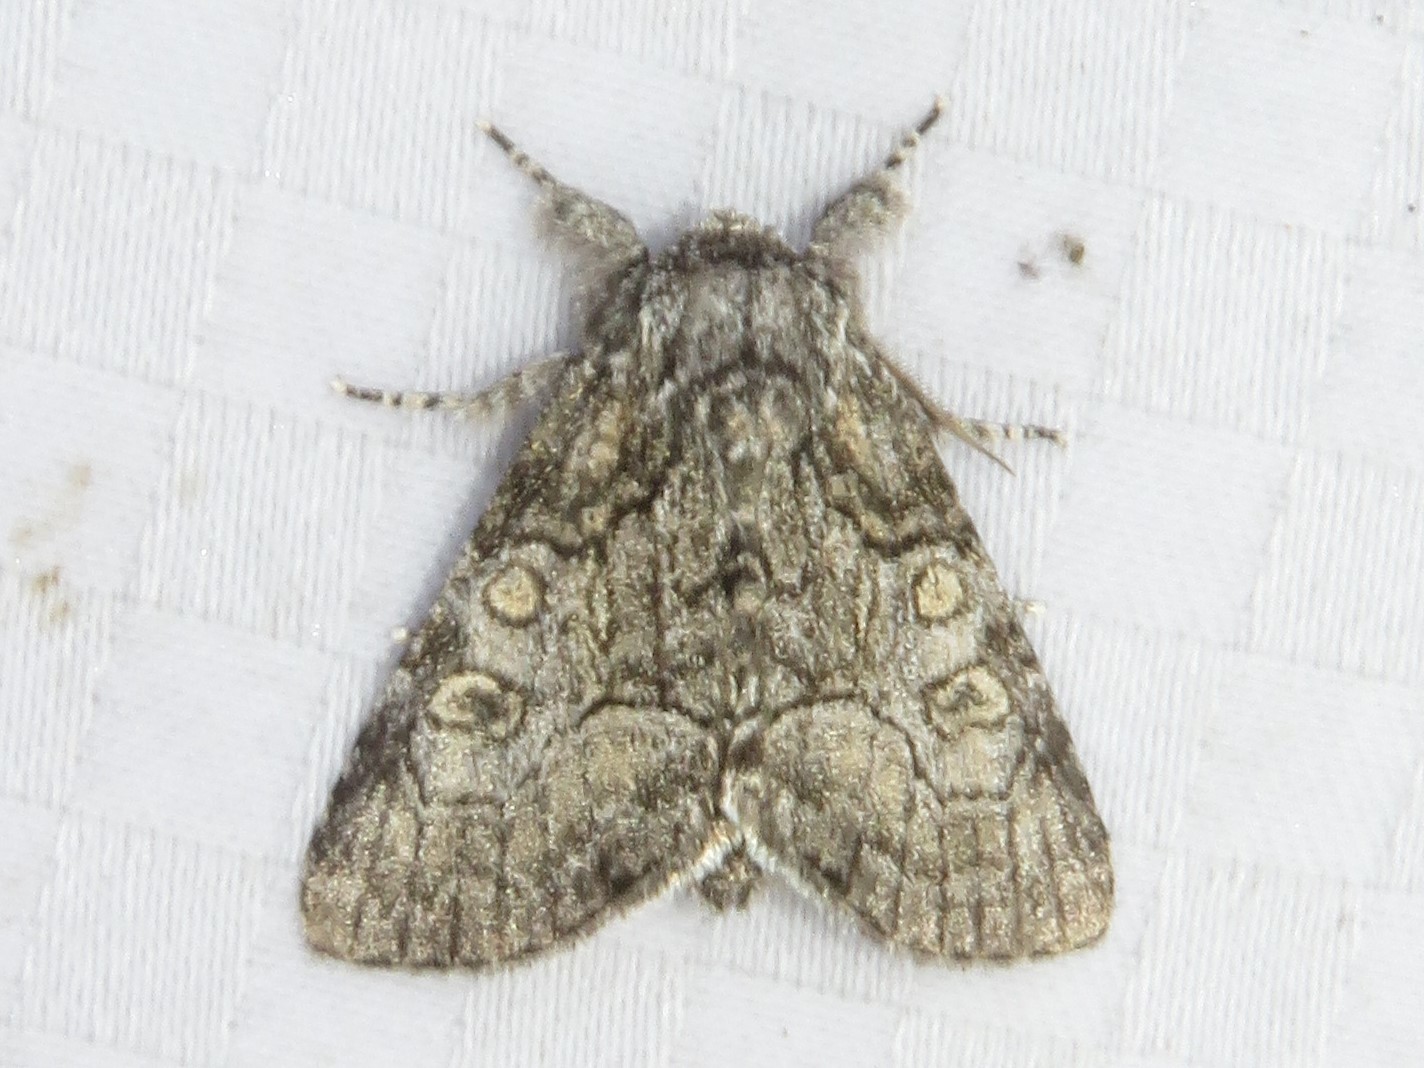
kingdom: Animalia
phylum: Arthropoda
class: Insecta
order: Lepidoptera
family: Noctuidae
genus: Raphia
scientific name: Raphia frater
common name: Brother
